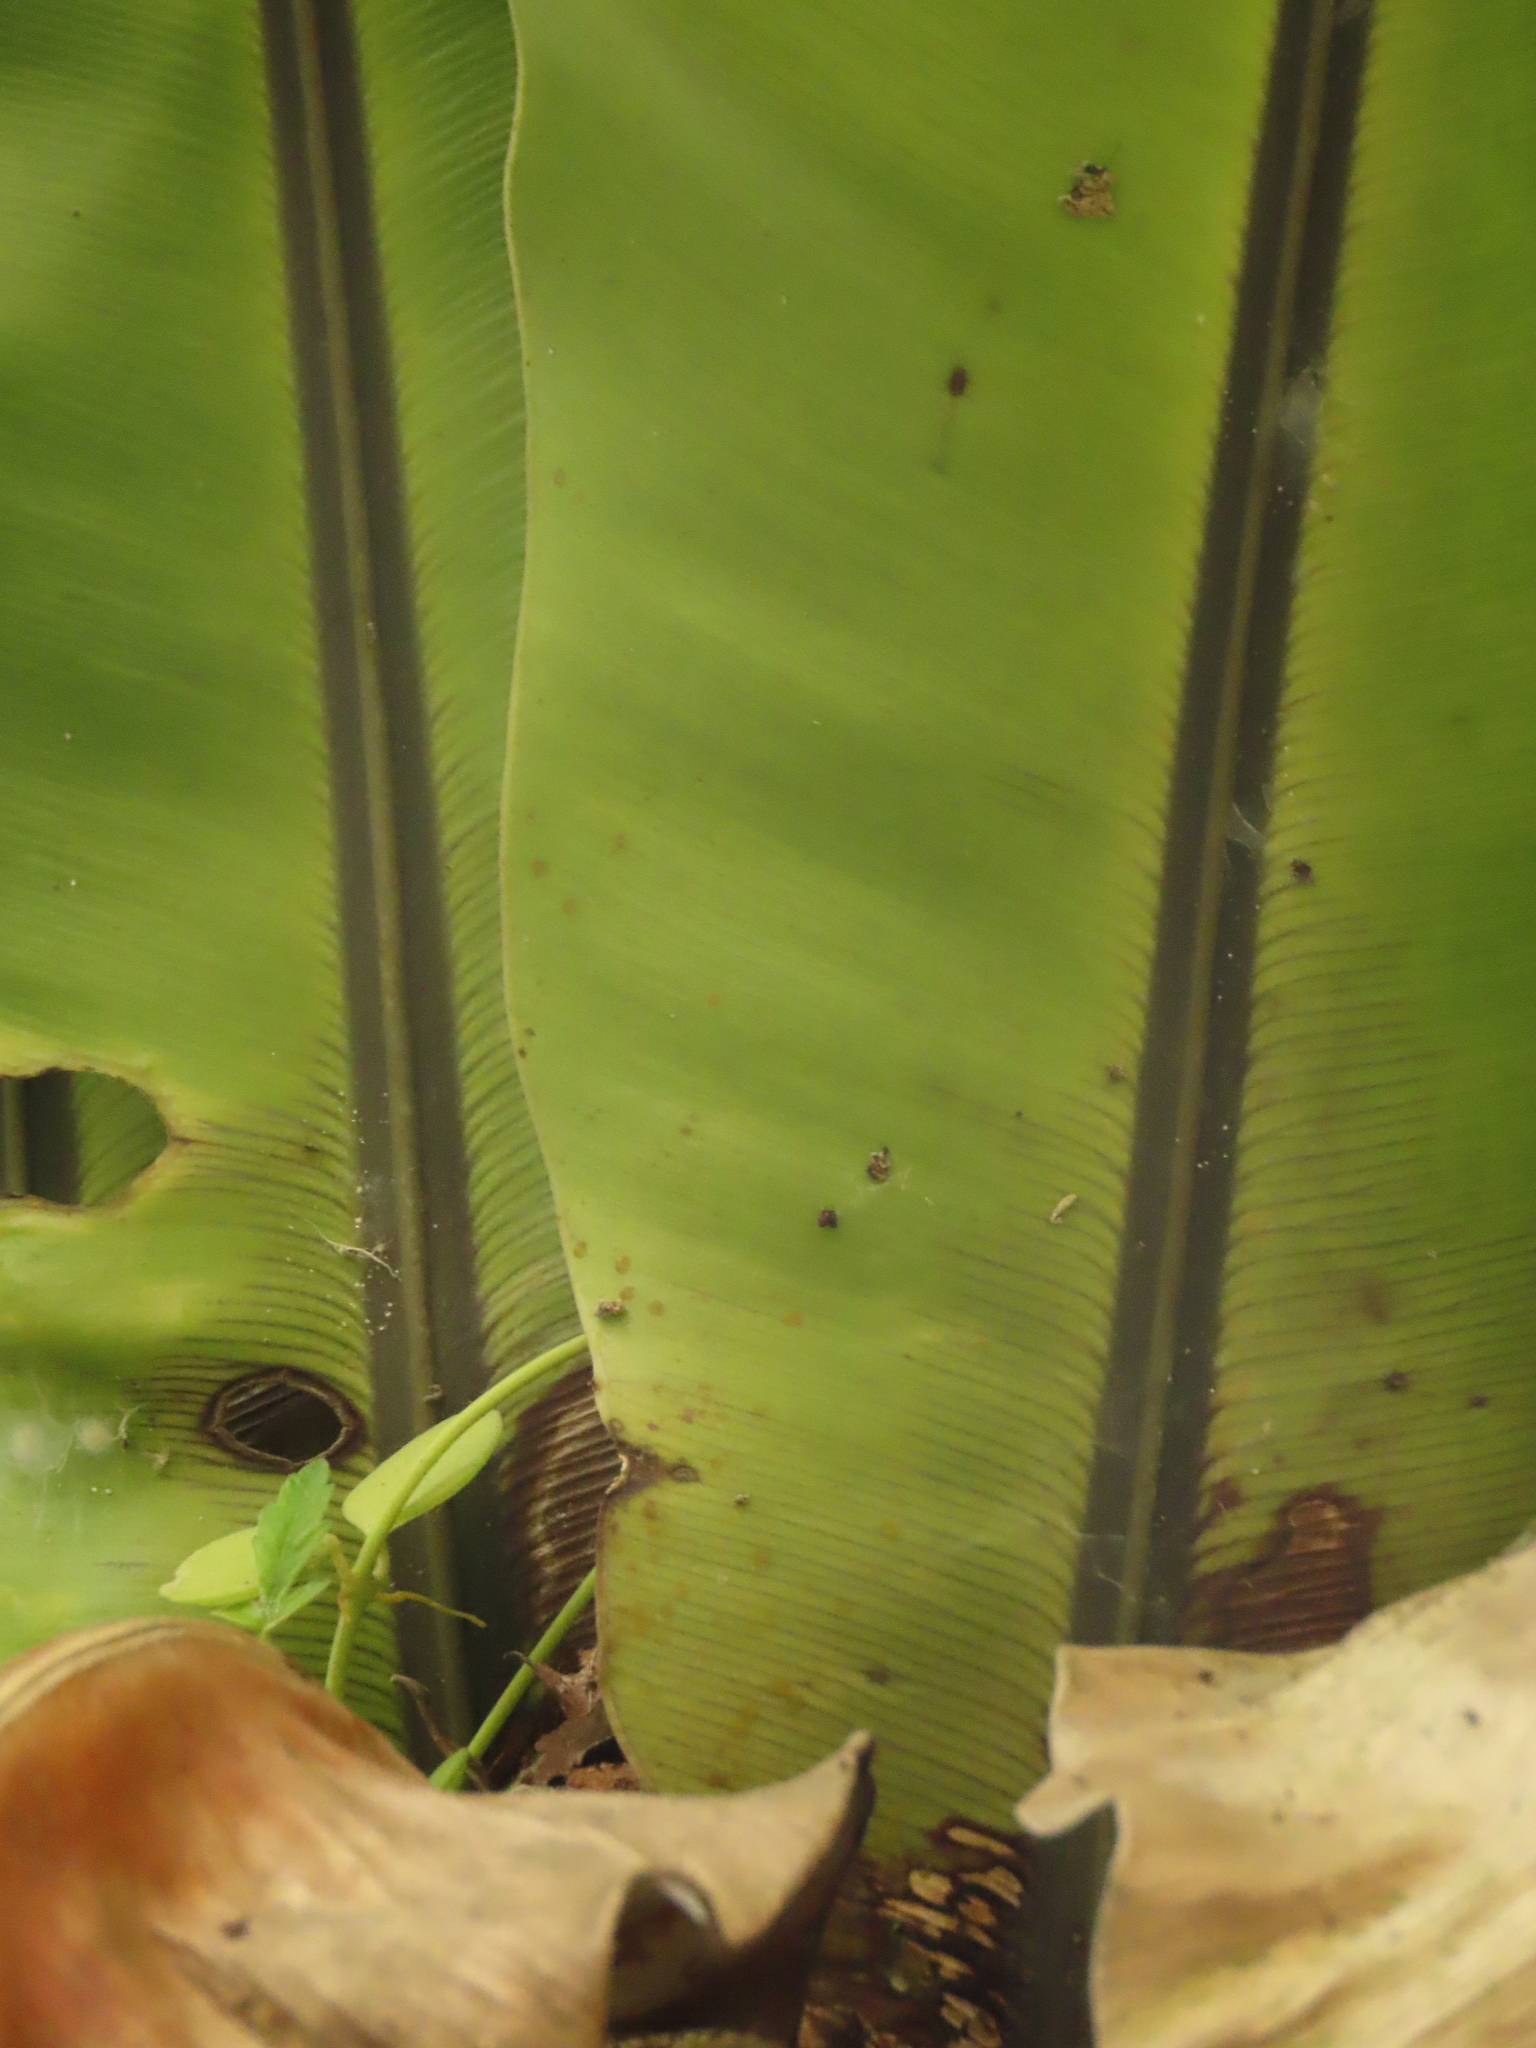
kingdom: Plantae
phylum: Tracheophyta
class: Polypodiopsida
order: Polypodiales
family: Aspleniaceae
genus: Asplenium
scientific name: Asplenium setoi
